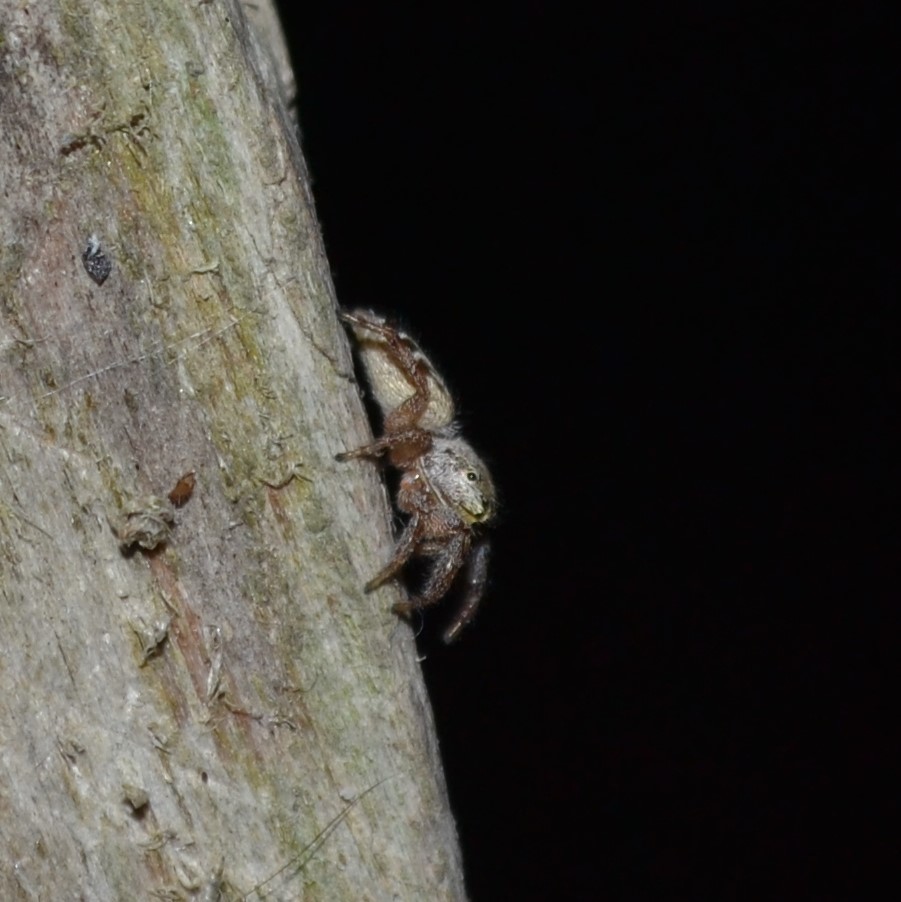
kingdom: Animalia
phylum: Arthropoda
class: Arachnida
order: Araneae
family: Salticidae
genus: Eris
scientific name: Eris floridana
